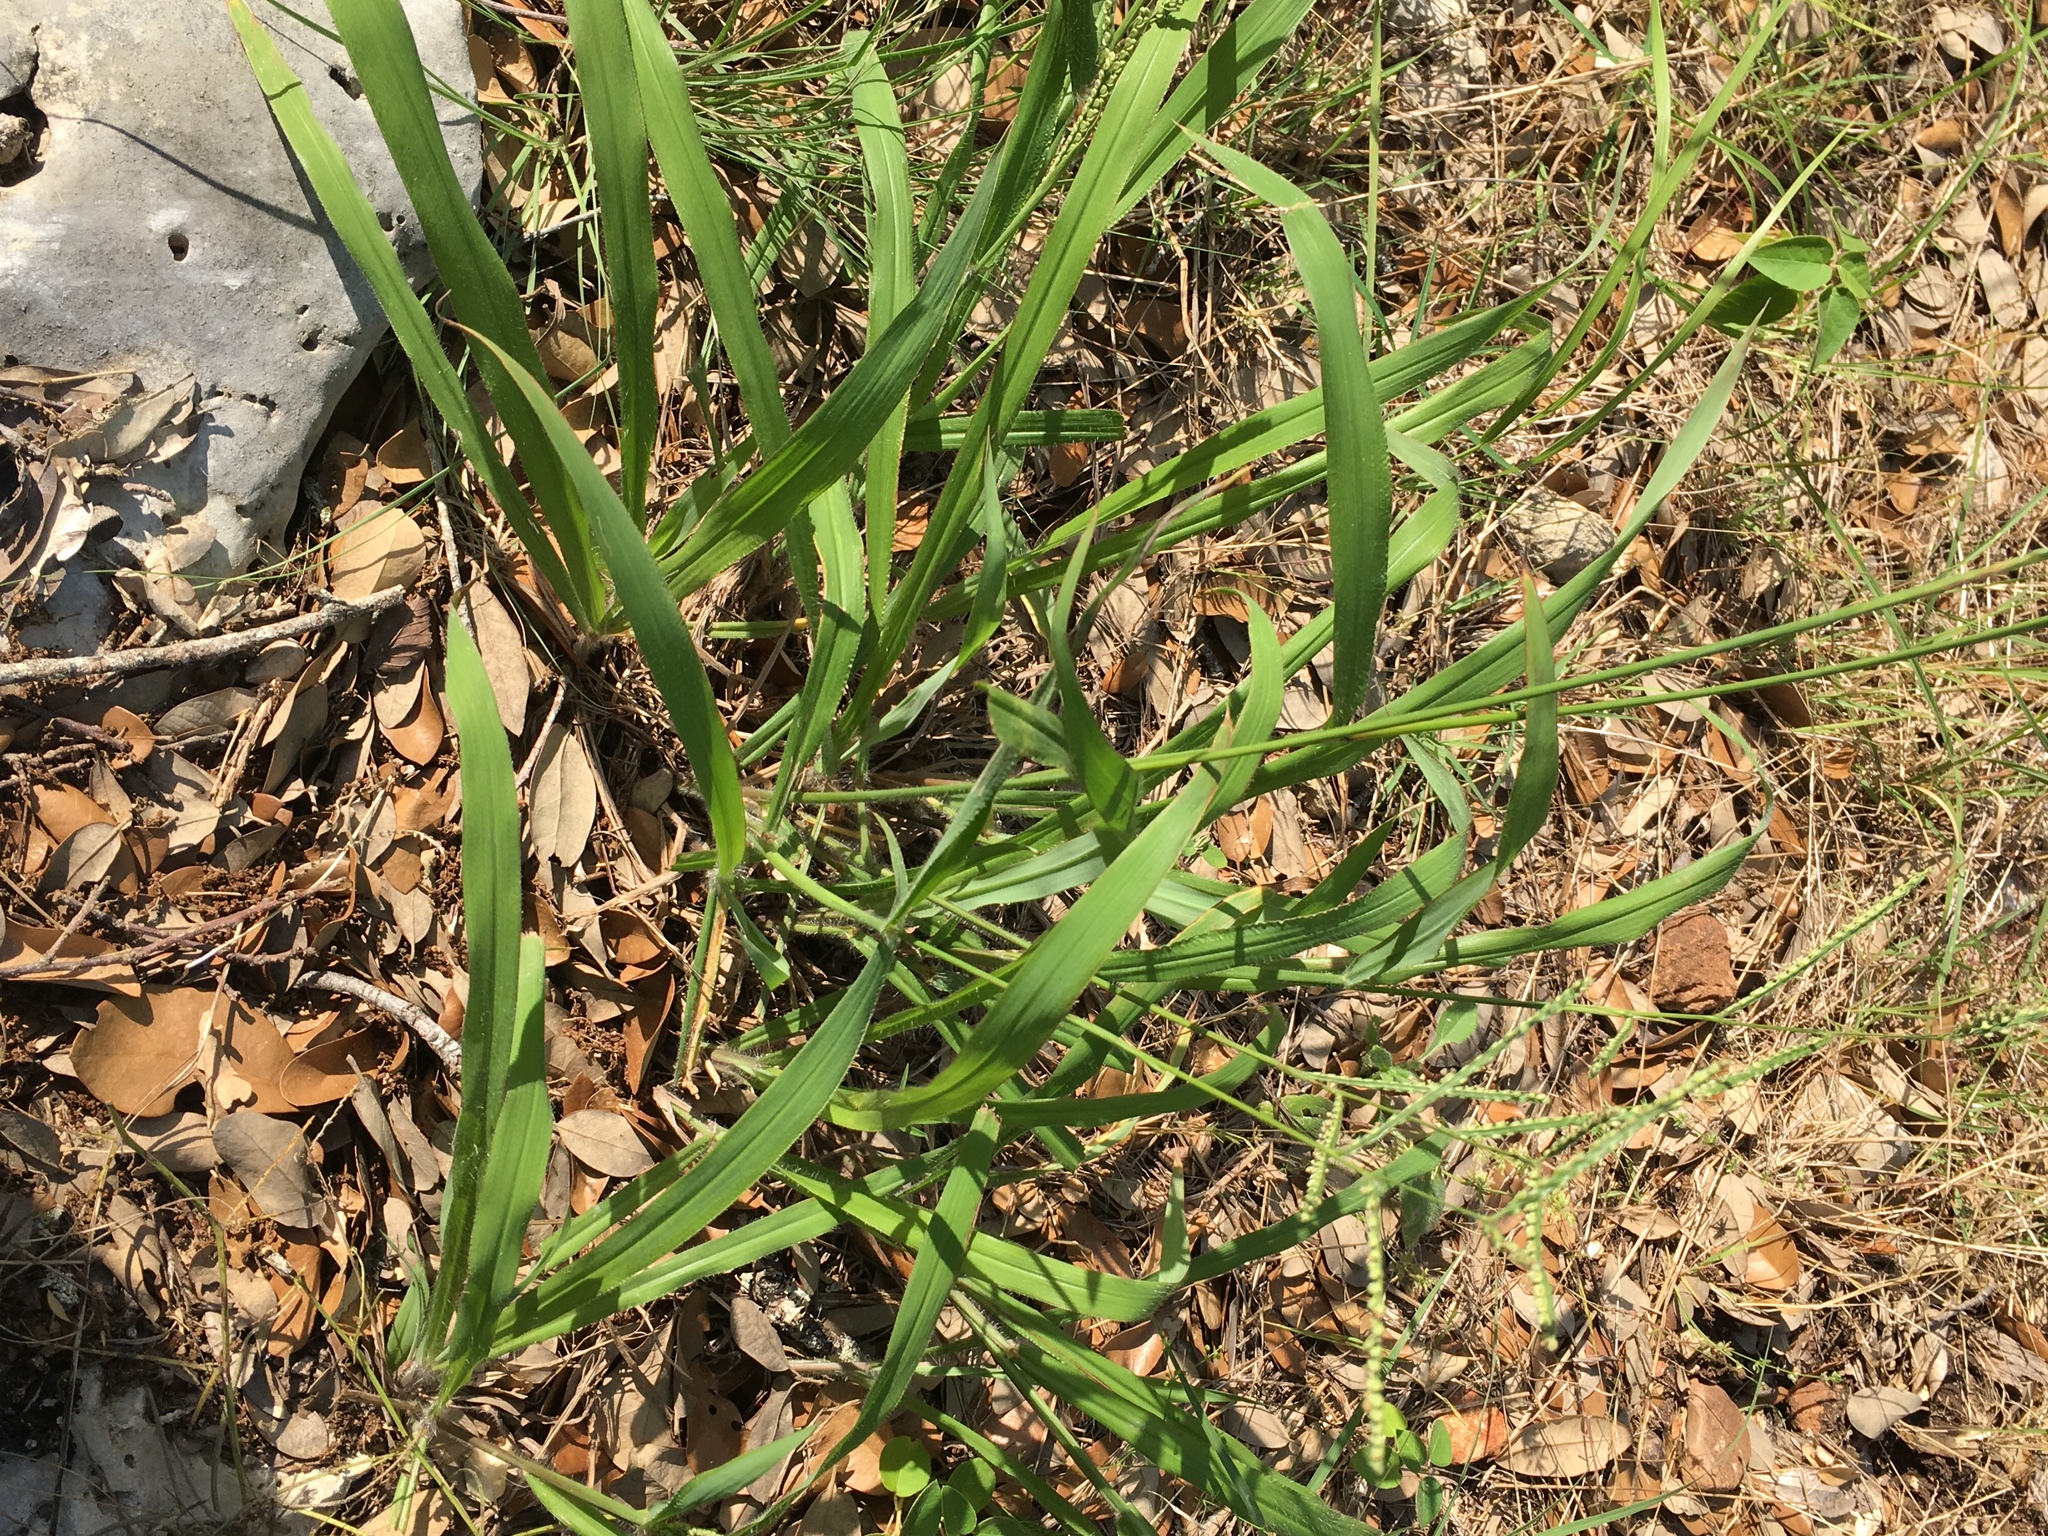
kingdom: Plantae
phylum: Tracheophyta
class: Liliopsida
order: Poales
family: Poaceae
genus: Paspalum
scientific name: Paspalum setaceum
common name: Slender paspalum
